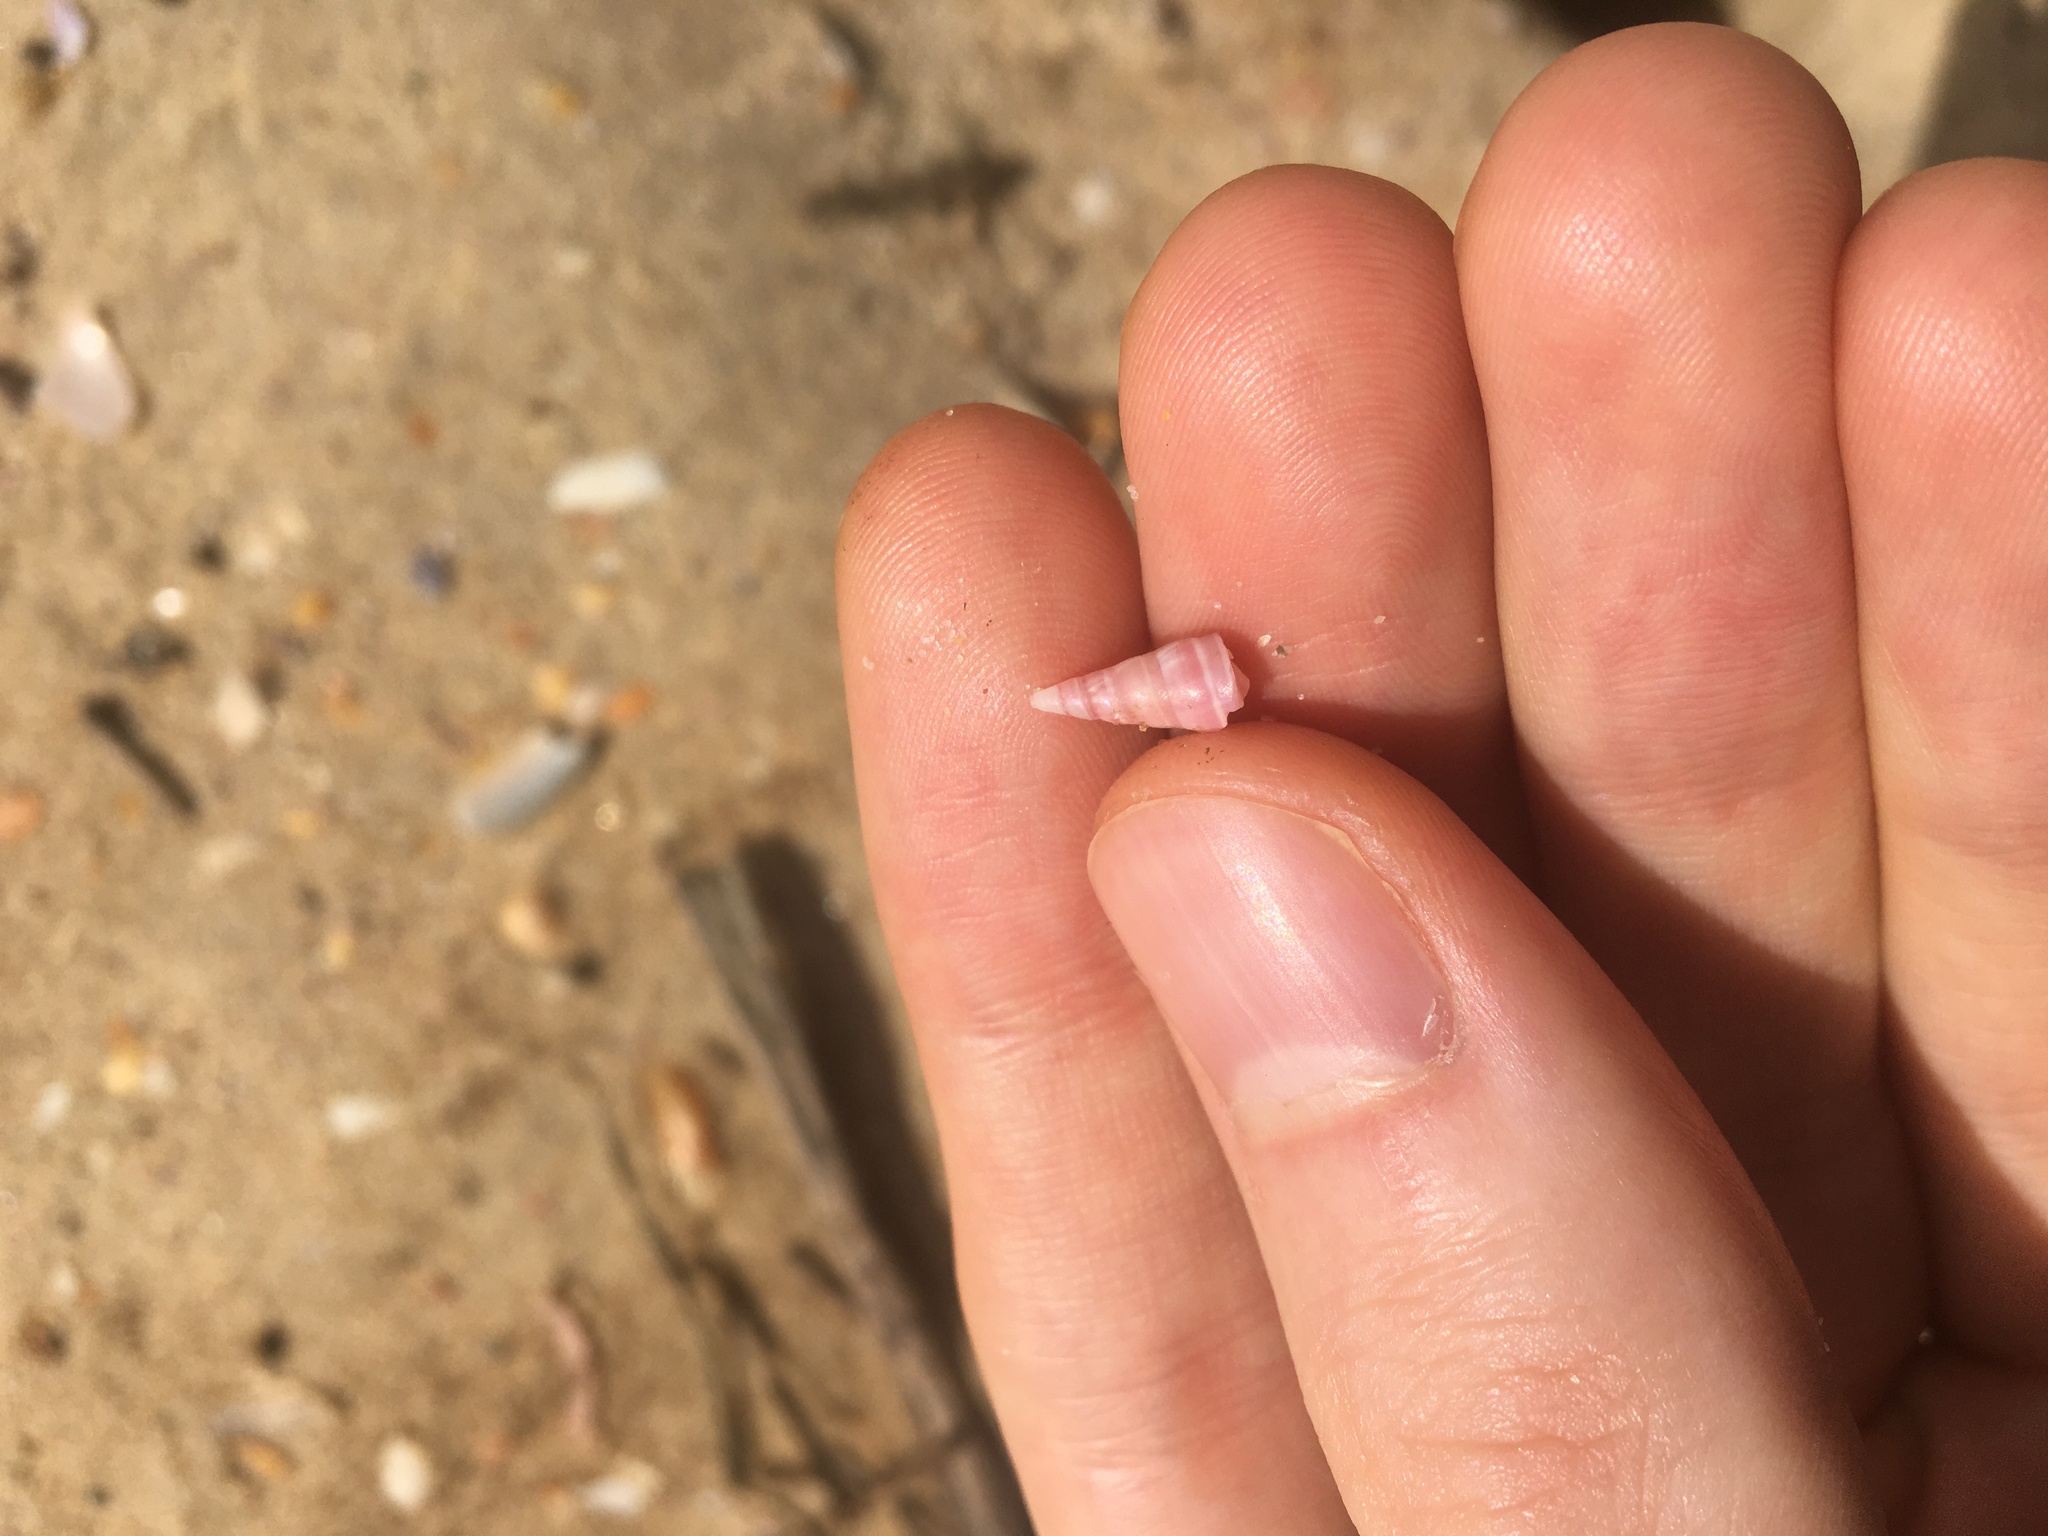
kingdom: Animalia
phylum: Mollusca
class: Gastropoda
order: Trochida
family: Trochidae
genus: Bankivia
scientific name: Bankivia fasciata
